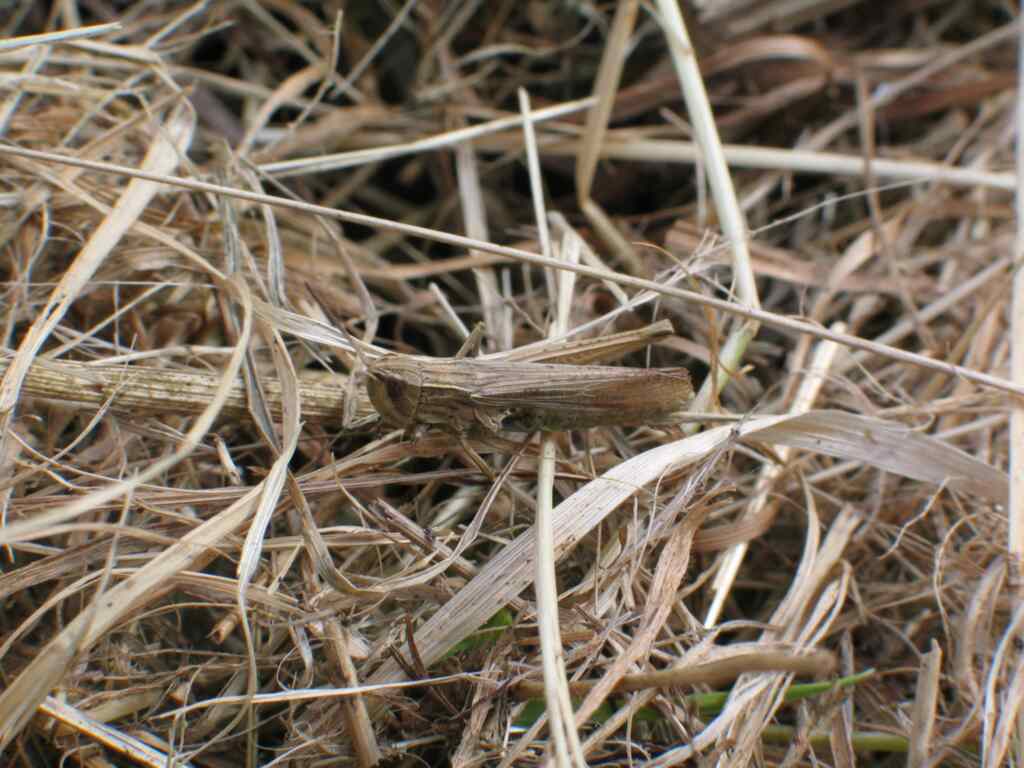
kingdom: Animalia
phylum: Arthropoda
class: Insecta
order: Orthoptera
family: Acrididae
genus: Chorthippus
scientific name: Chorthippus albomarginatus
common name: Lesser marsh grasshopper
